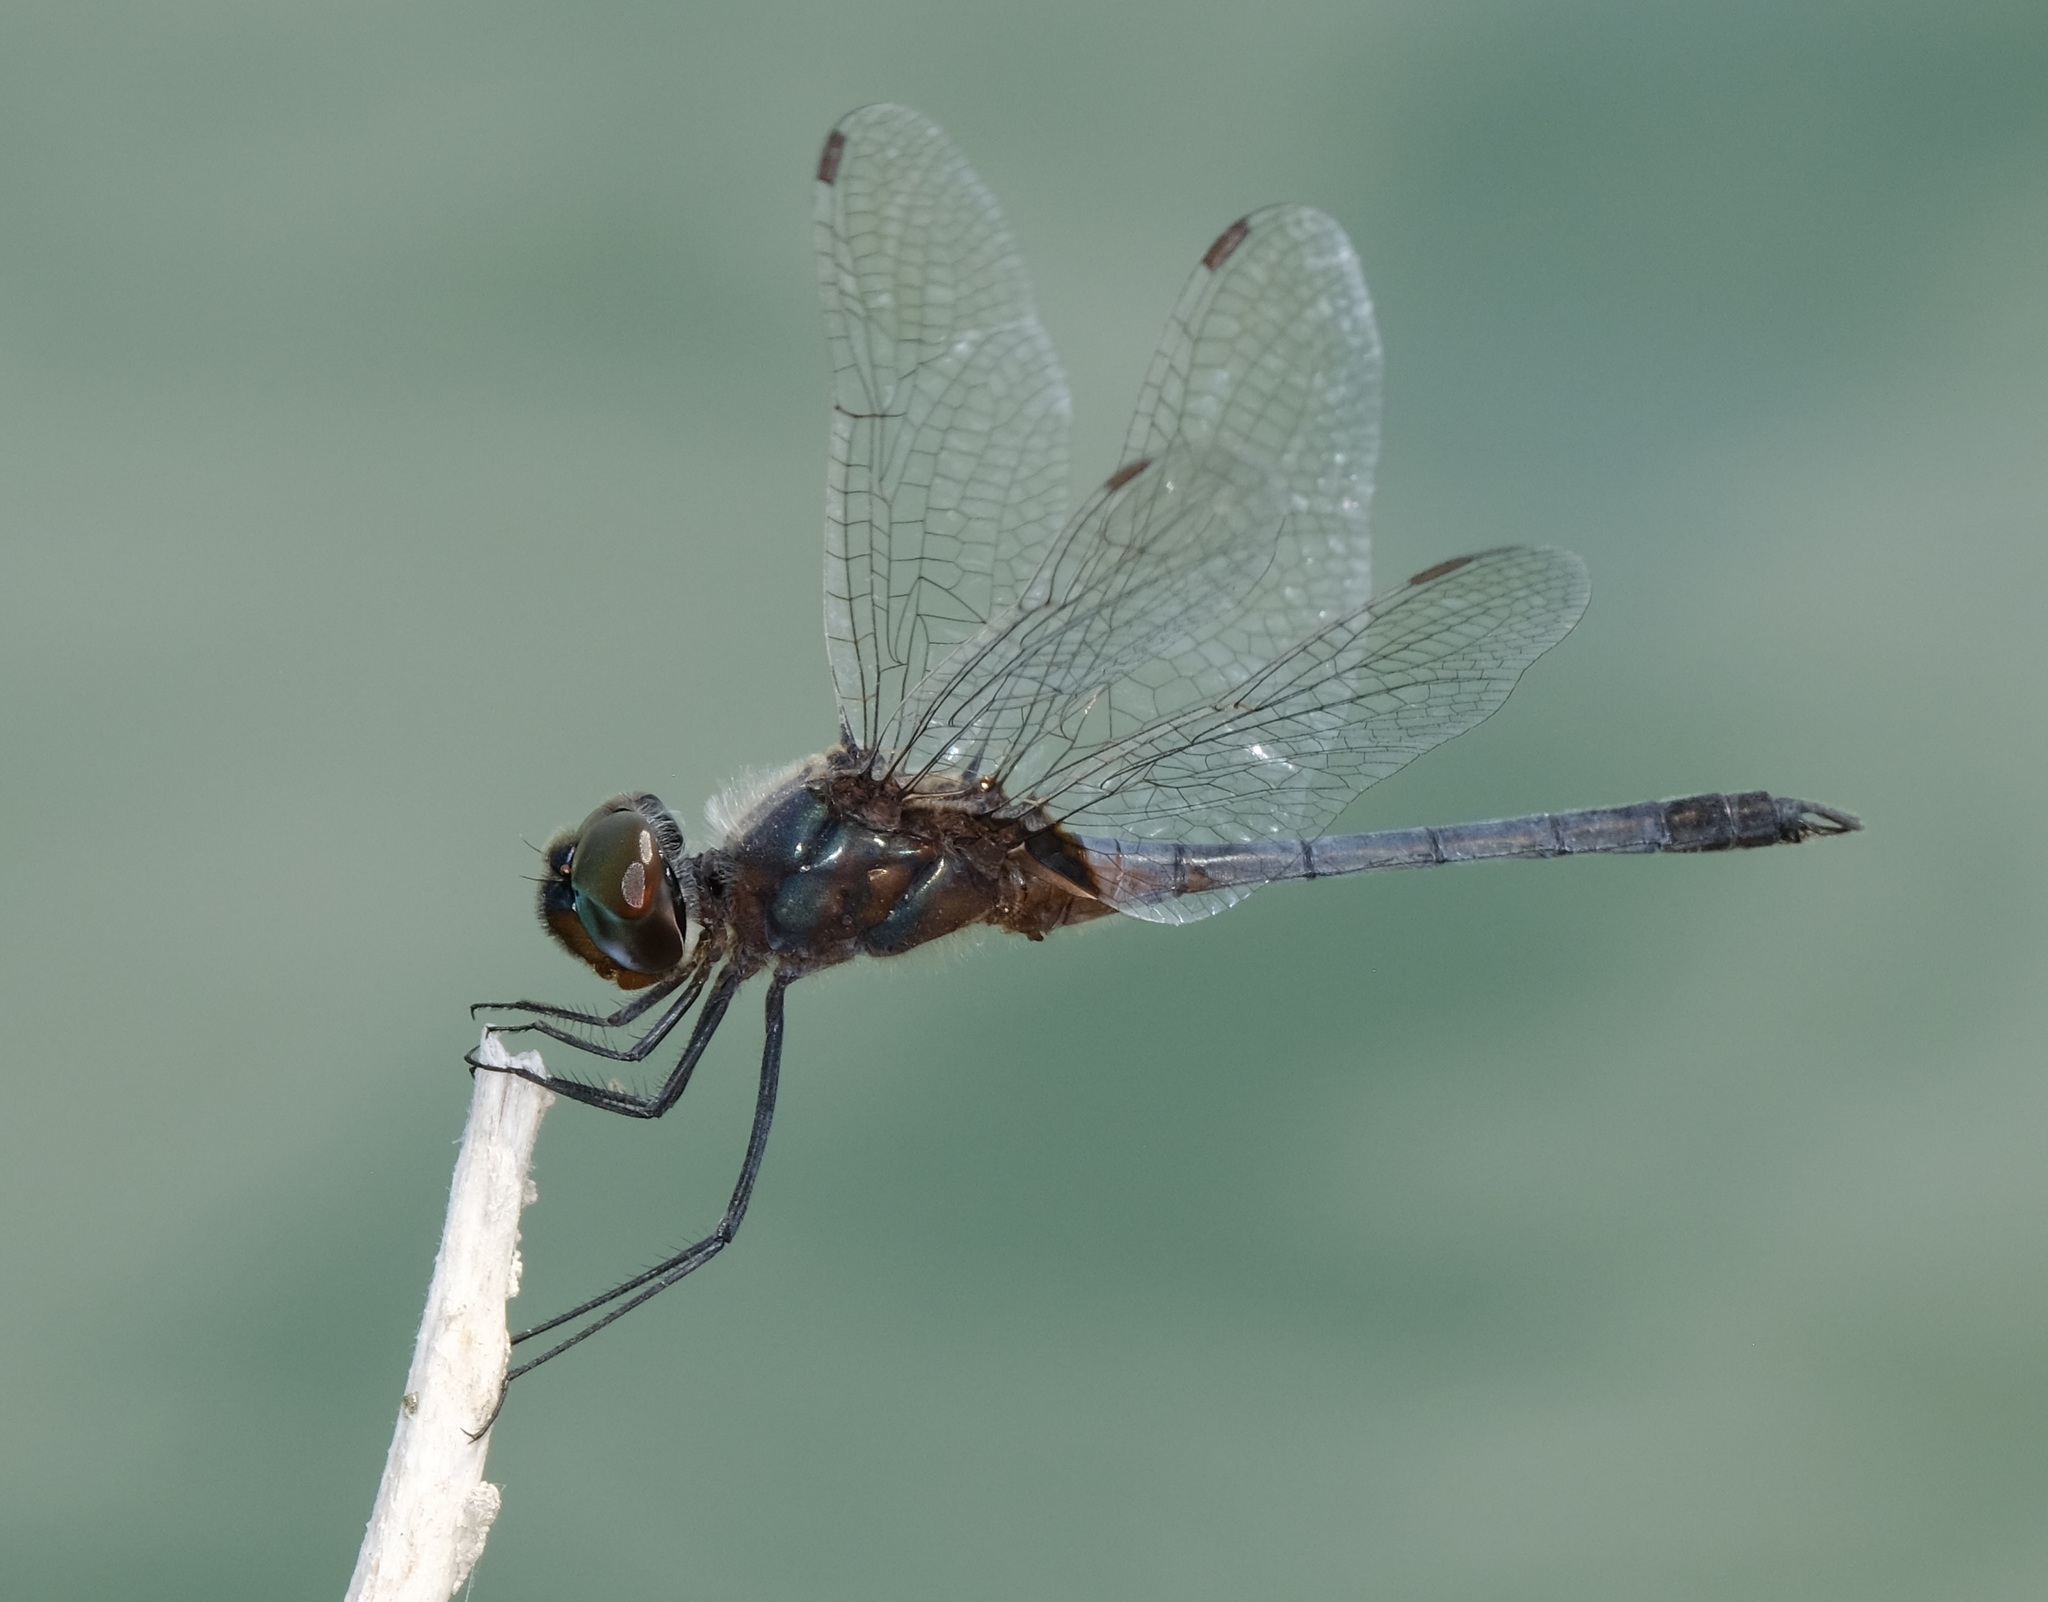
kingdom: Animalia
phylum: Arthropoda
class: Insecta
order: Odonata
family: Libellulidae
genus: Idiataphe
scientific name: Idiataphe cubensis
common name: Metallic pennant
